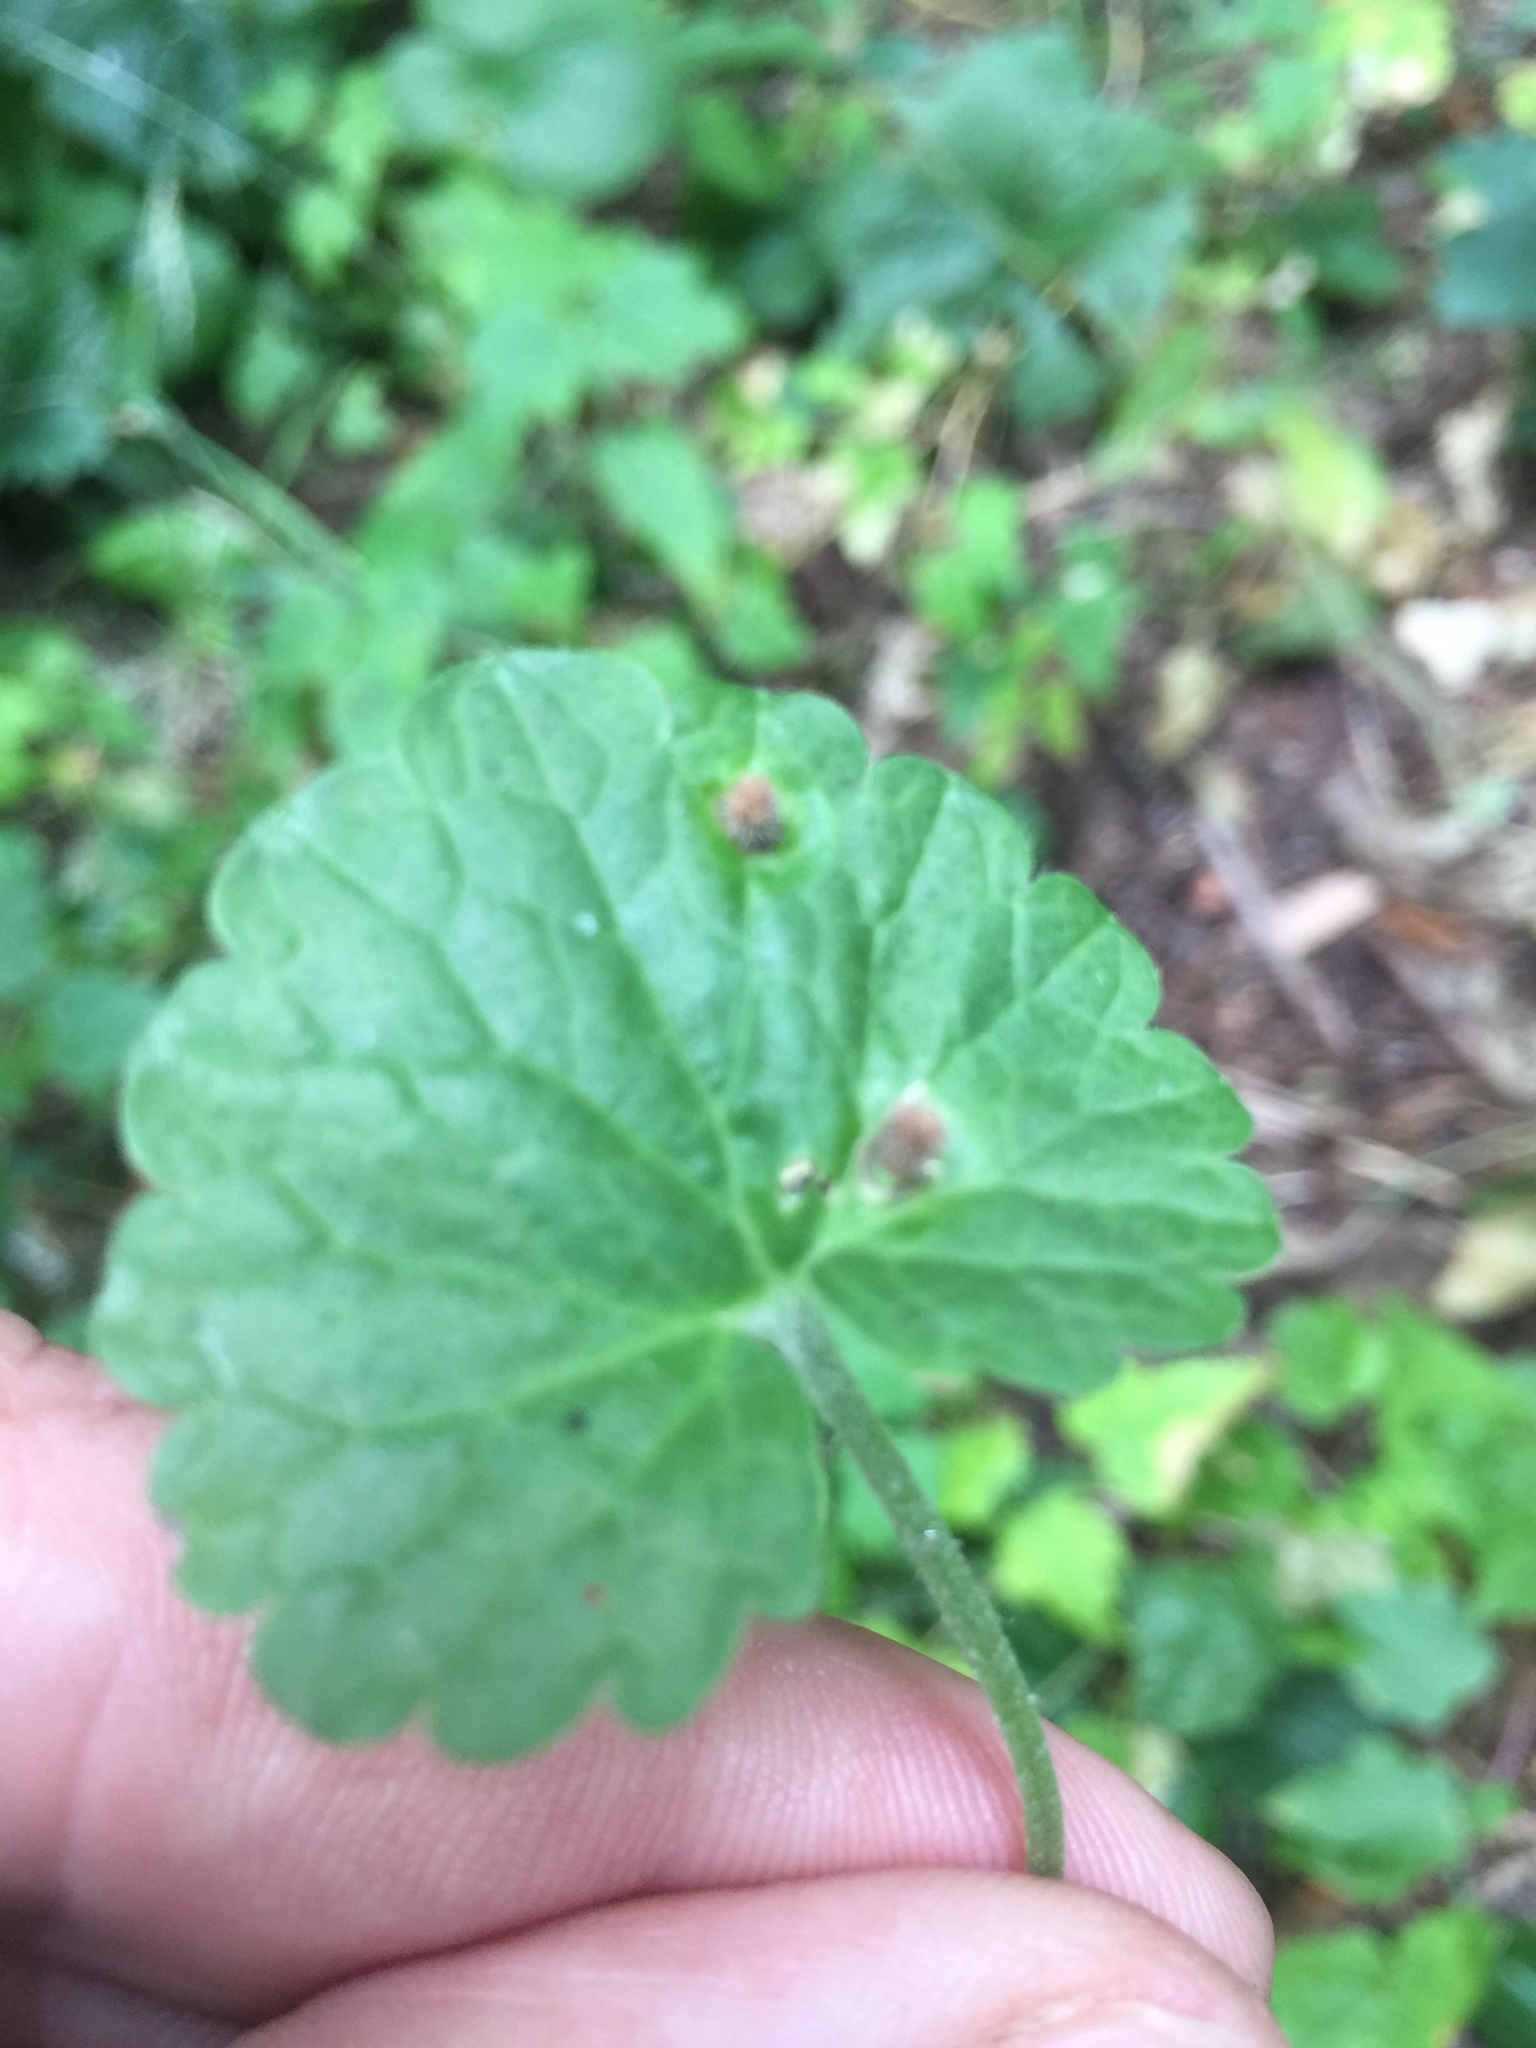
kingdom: Animalia
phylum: Arthropoda
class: Insecta
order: Diptera
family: Cecidomyiidae
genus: Rondaniola
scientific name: Rondaniola bursaria
